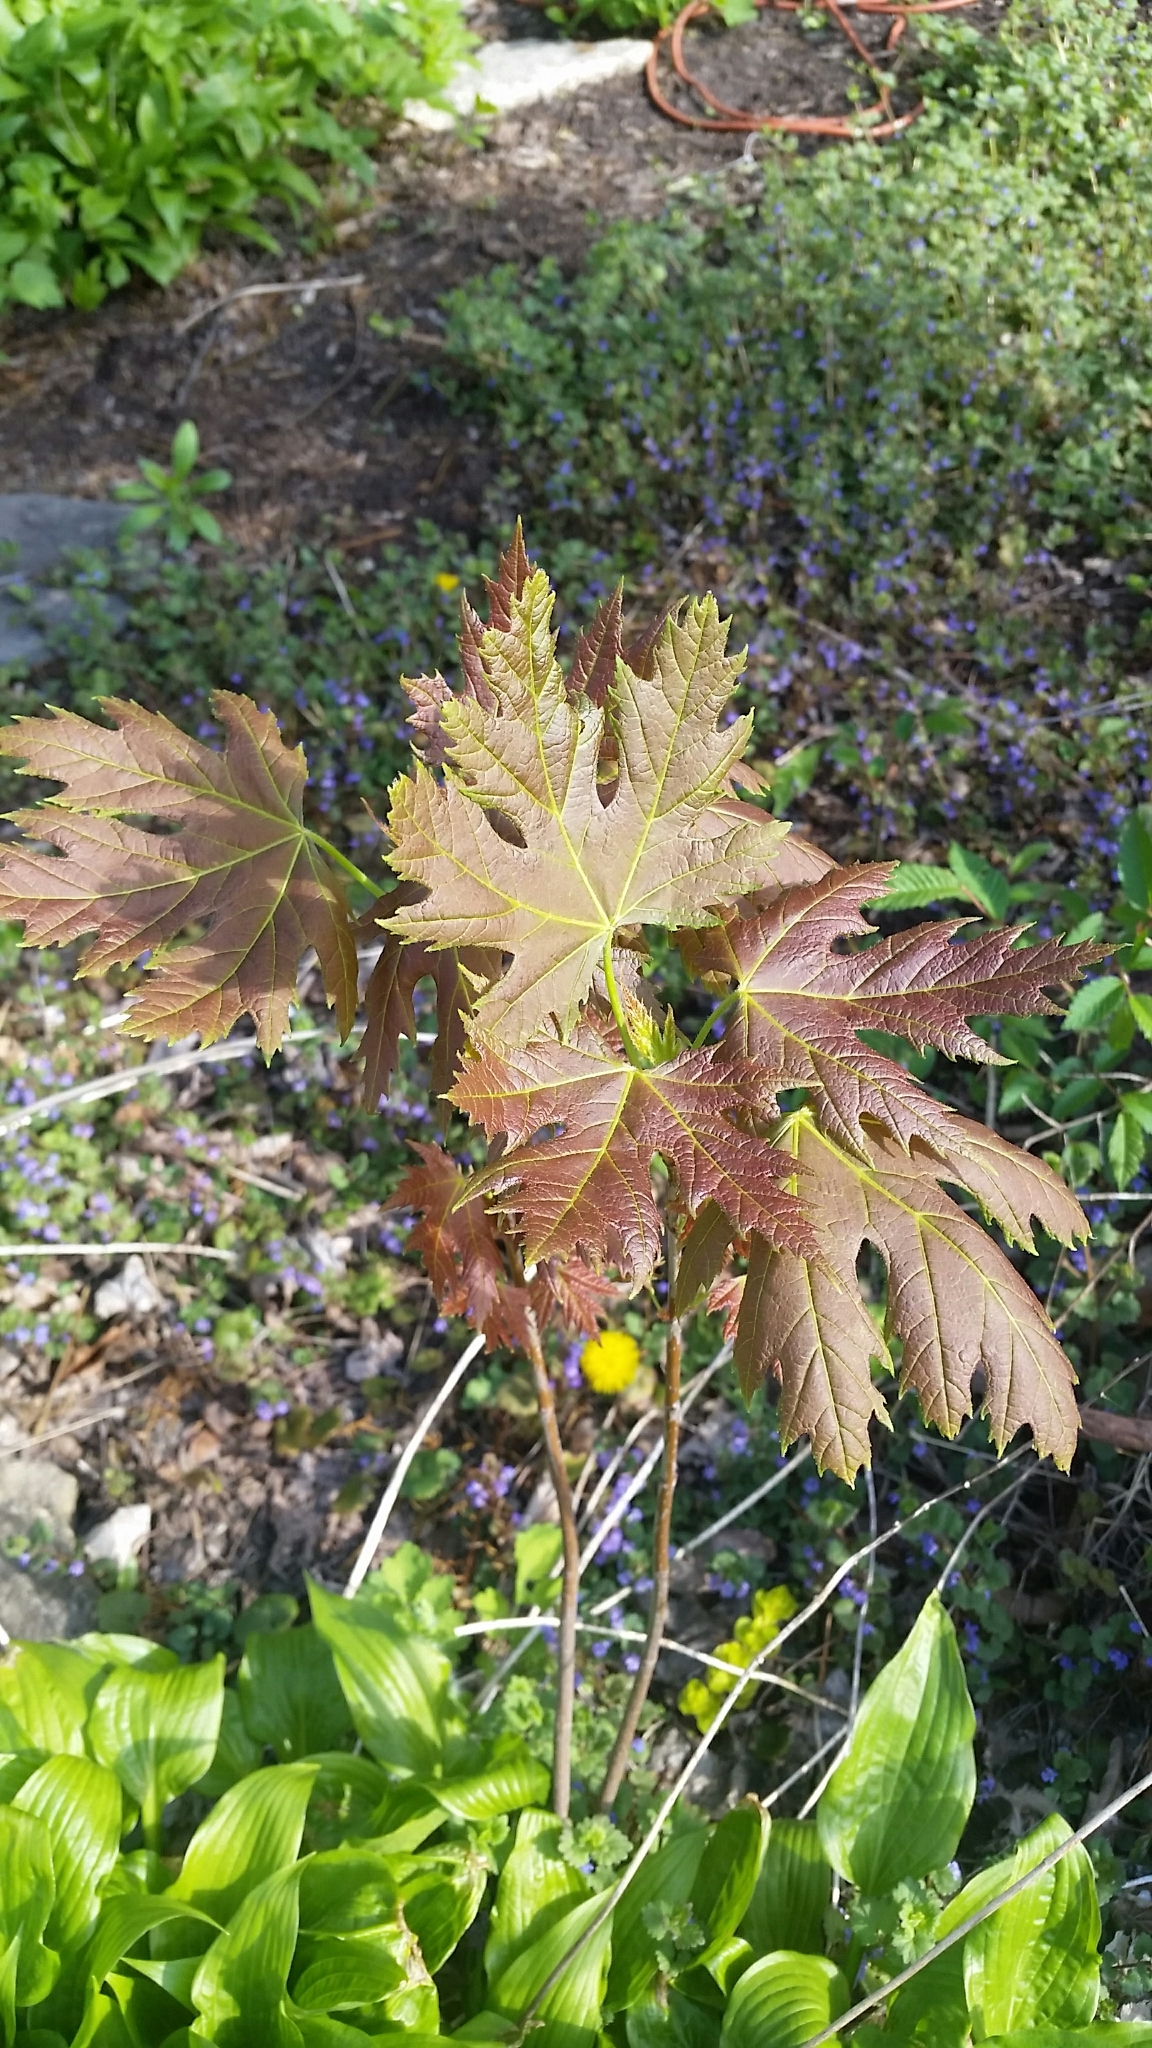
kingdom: Plantae
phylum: Tracheophyta
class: Magnoliopsida
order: Sapindales
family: Sapindaceae
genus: Acer
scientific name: Acer saccharinum
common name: Silver maple
